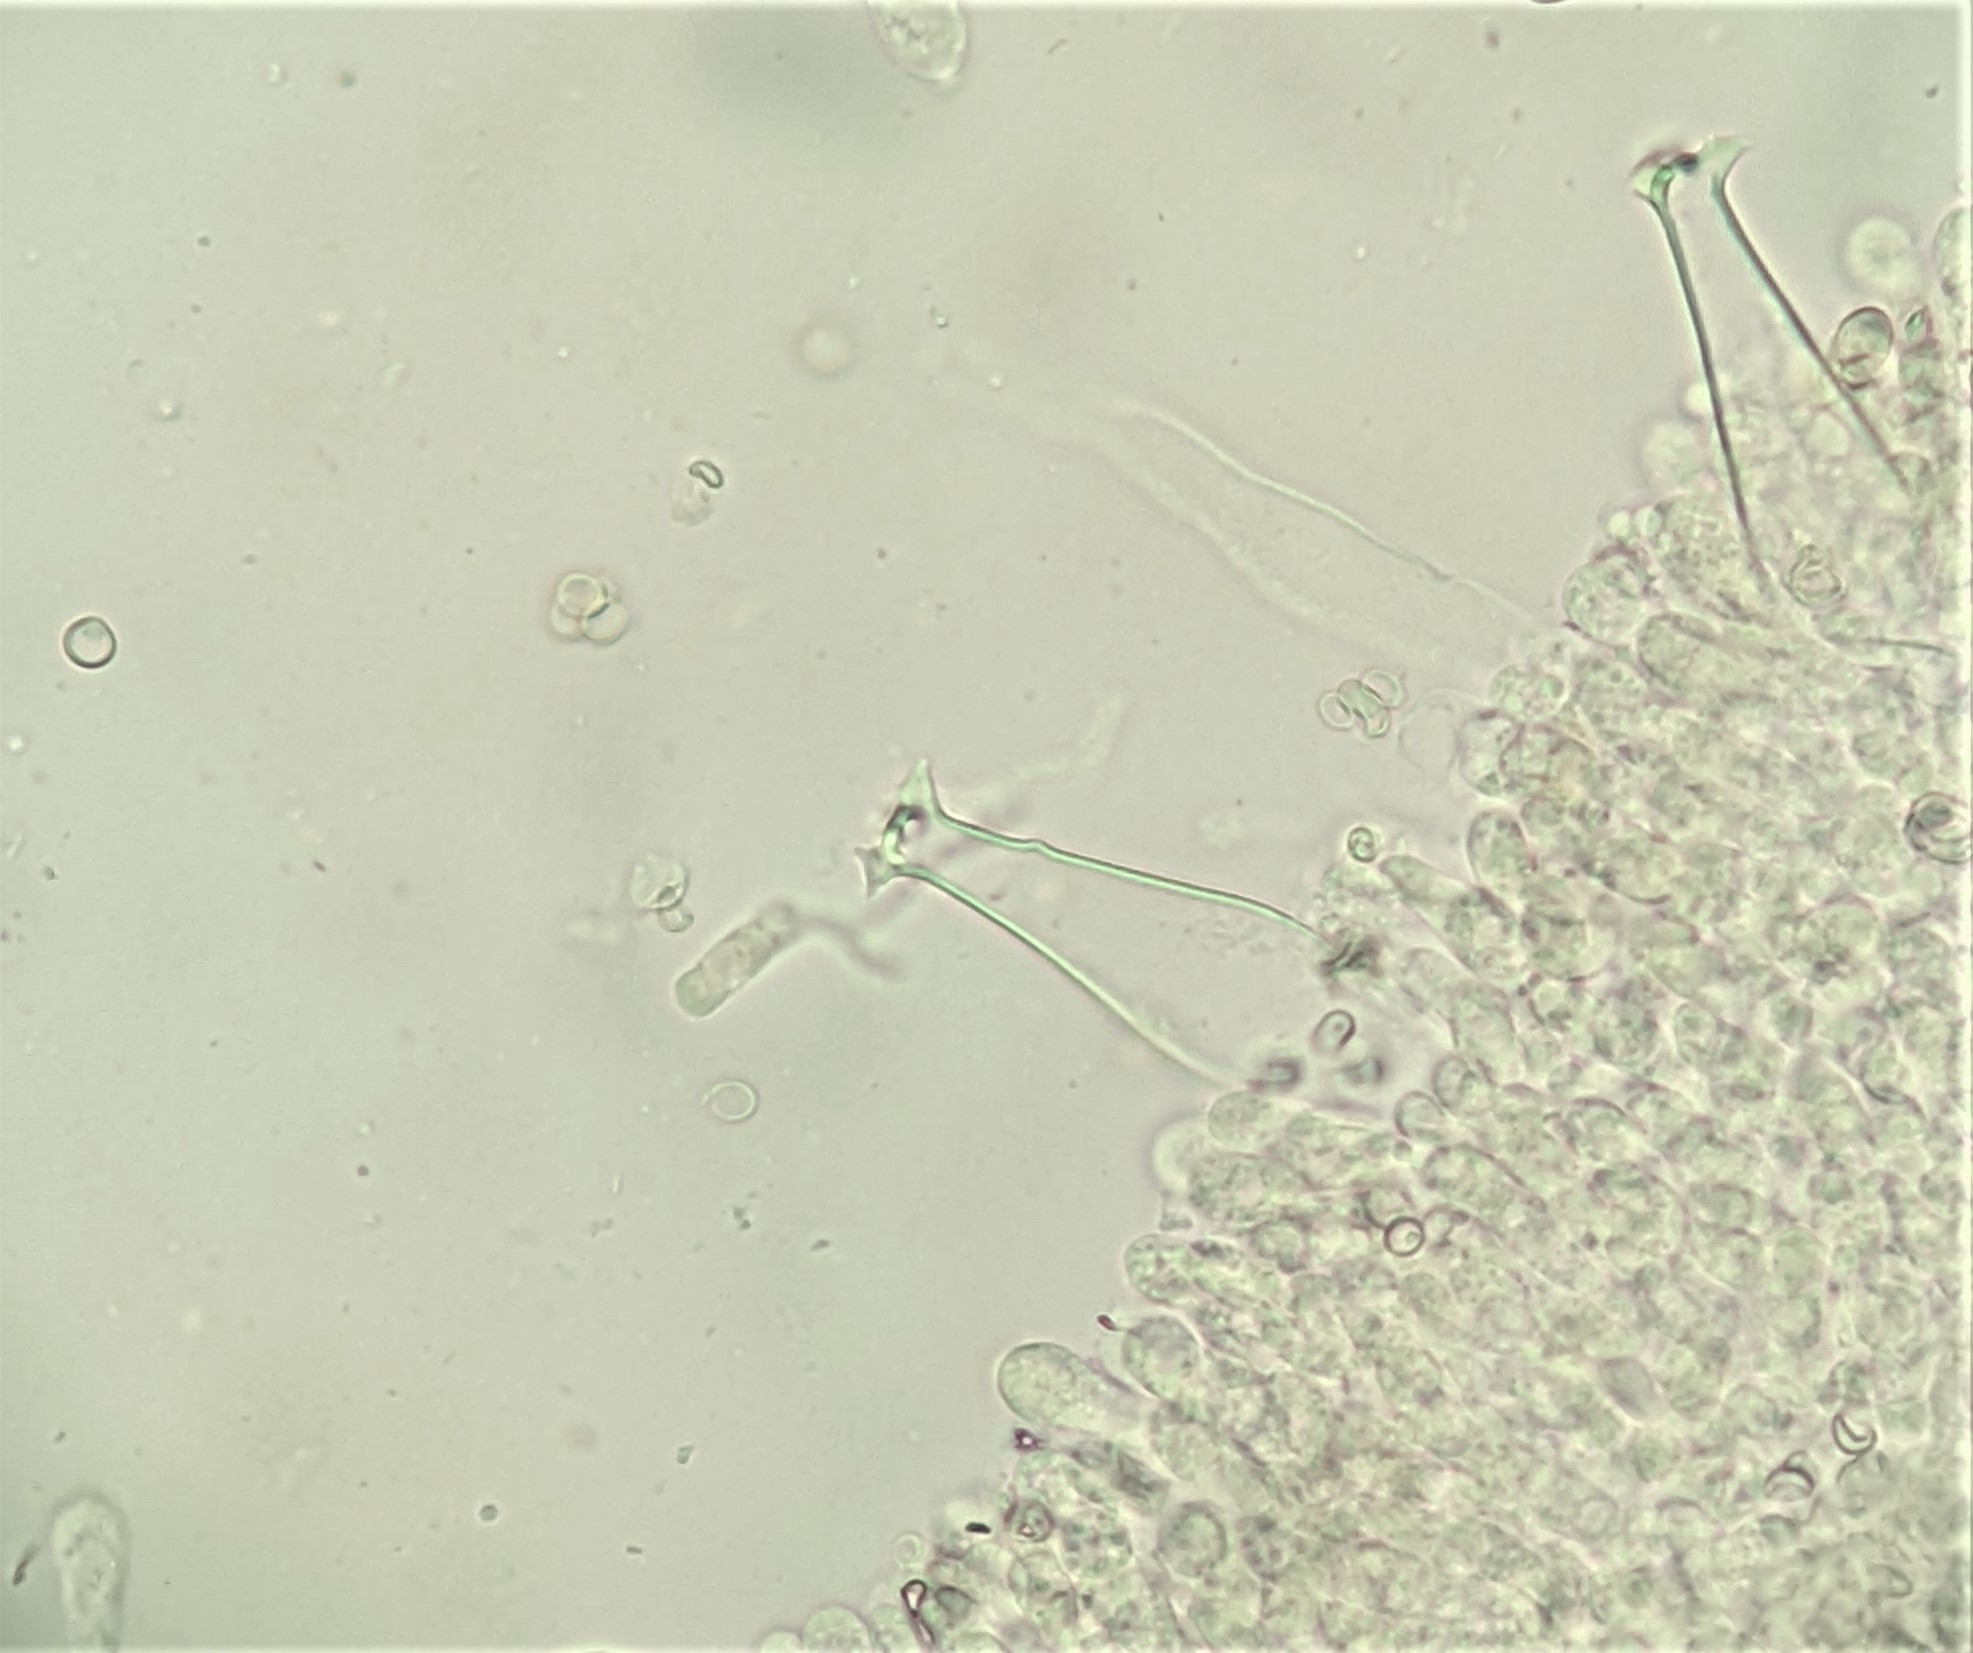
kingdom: Fungi
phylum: Basidiomycota
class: Agaricomycetes
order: Agaricales
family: Pluteaceae
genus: Pluteus
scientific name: Pluteus cervinus
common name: Deer shield
